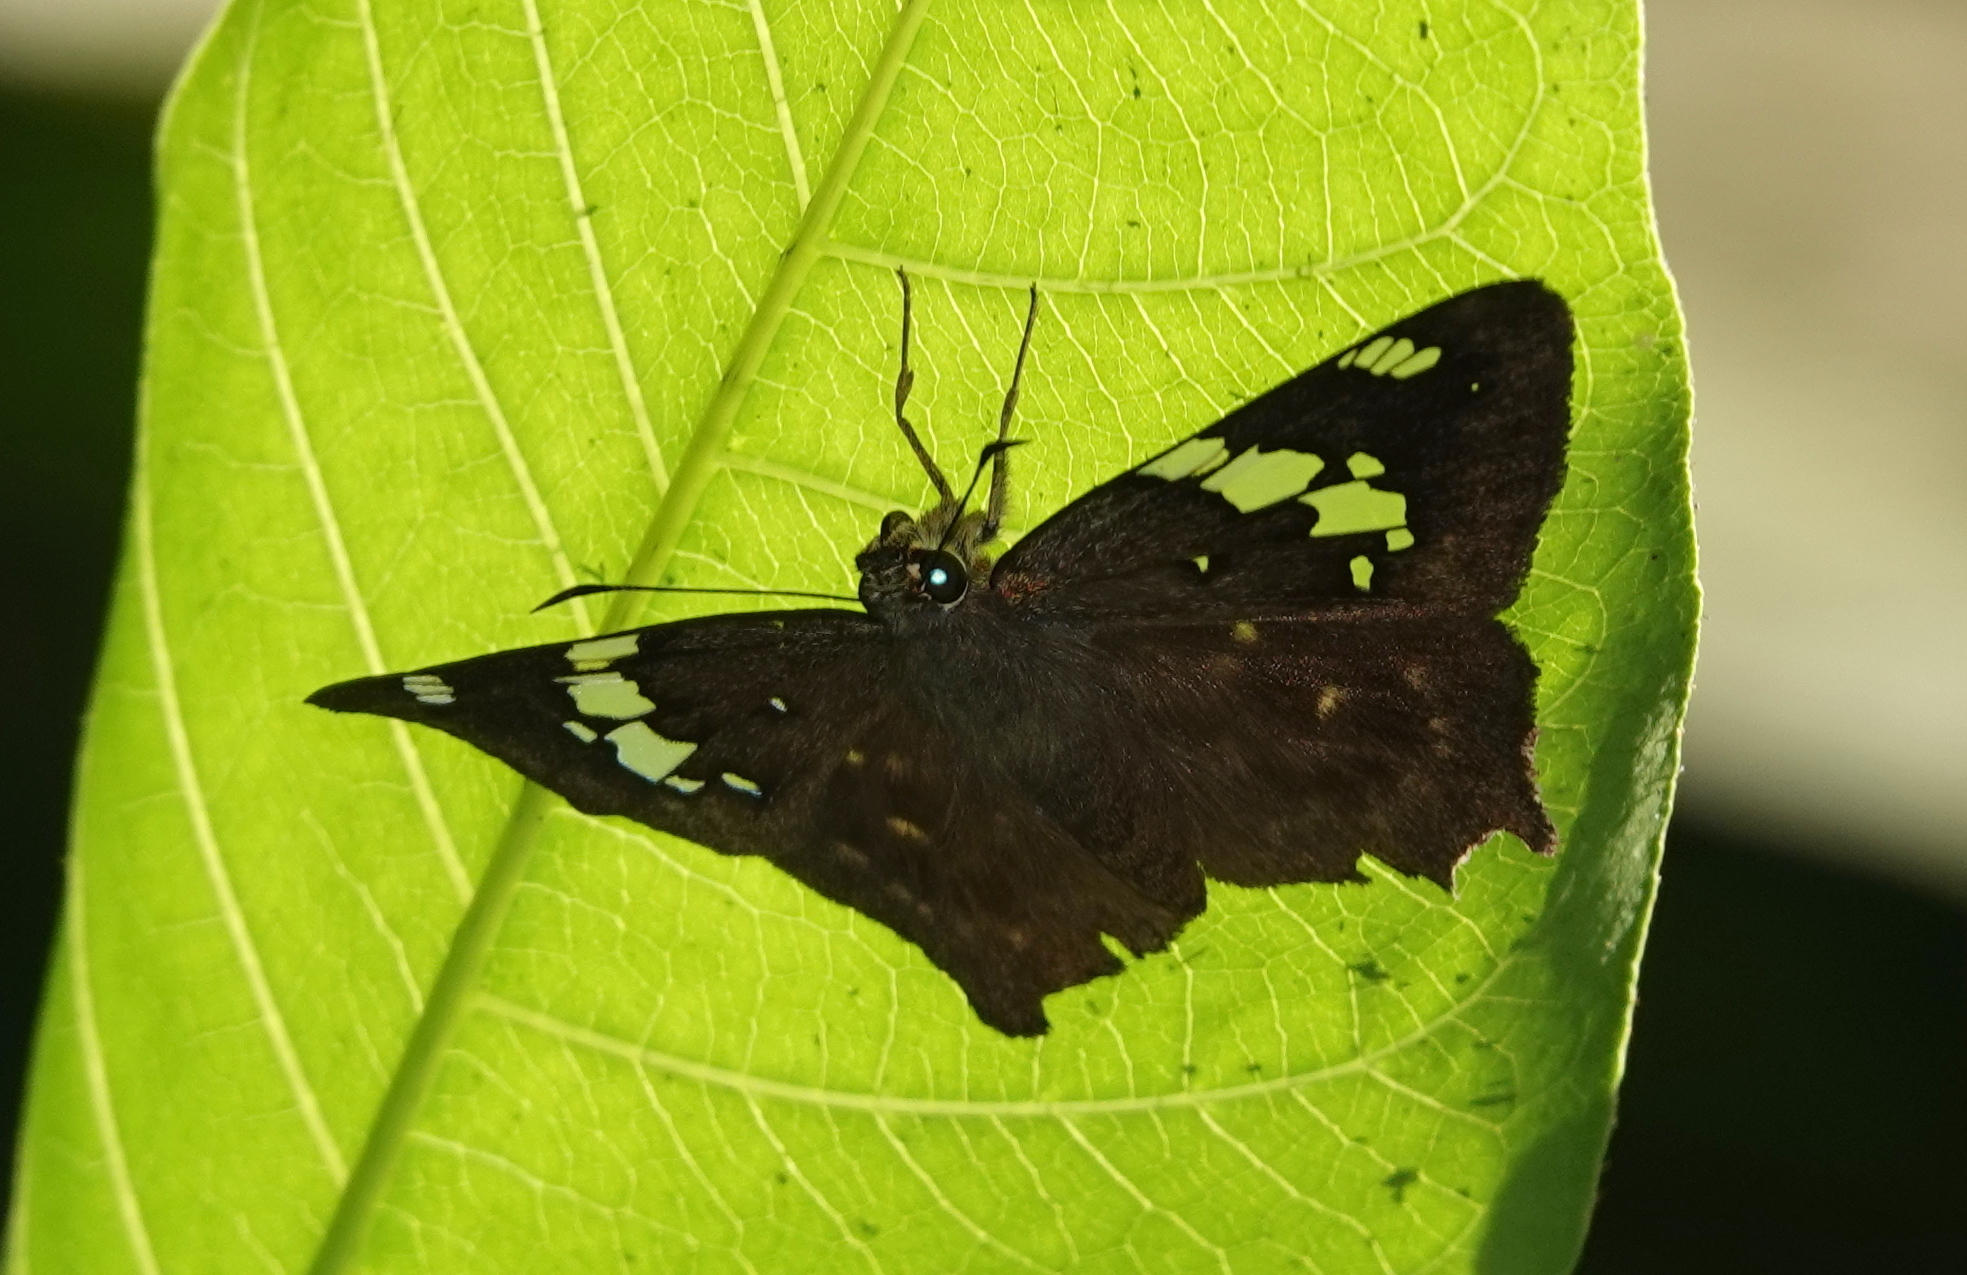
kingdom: Animalia
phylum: Arthropoda
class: Insecta
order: Lepidoptera
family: Hesperiidae
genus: Celaenorrhinus
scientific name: Celaenorrhinus eligius
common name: Eligius flat
